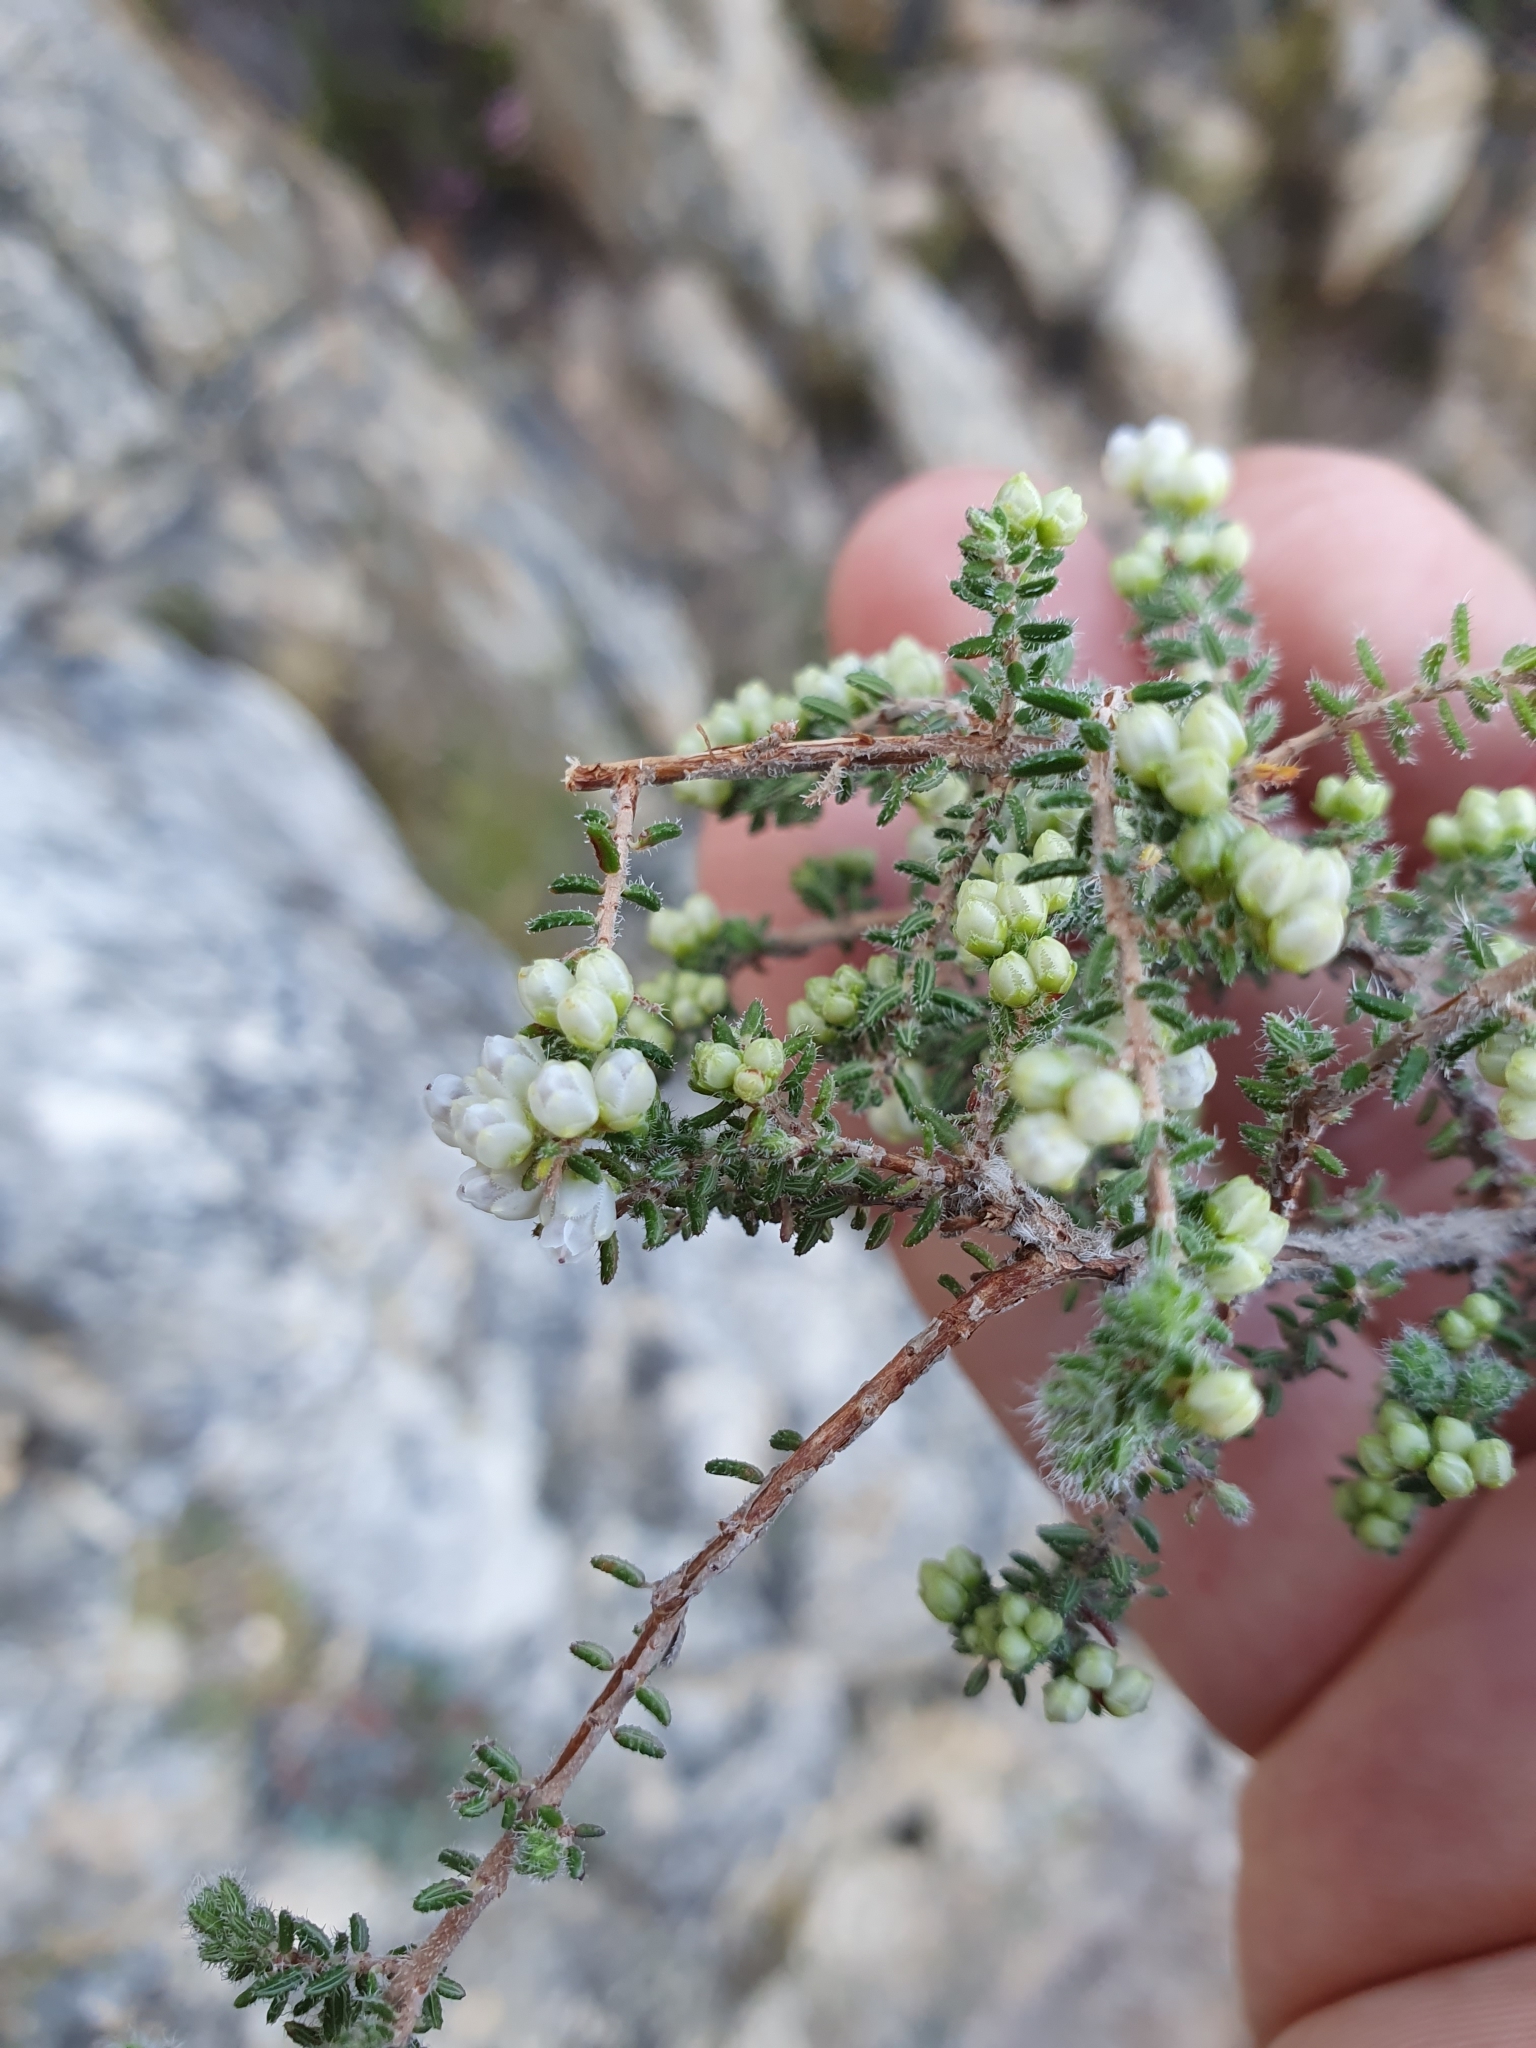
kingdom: Plantae
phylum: Tracheophyta
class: Magnoliopsida
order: Ericales
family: Ericaceae
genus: Erica
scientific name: Erica totta
